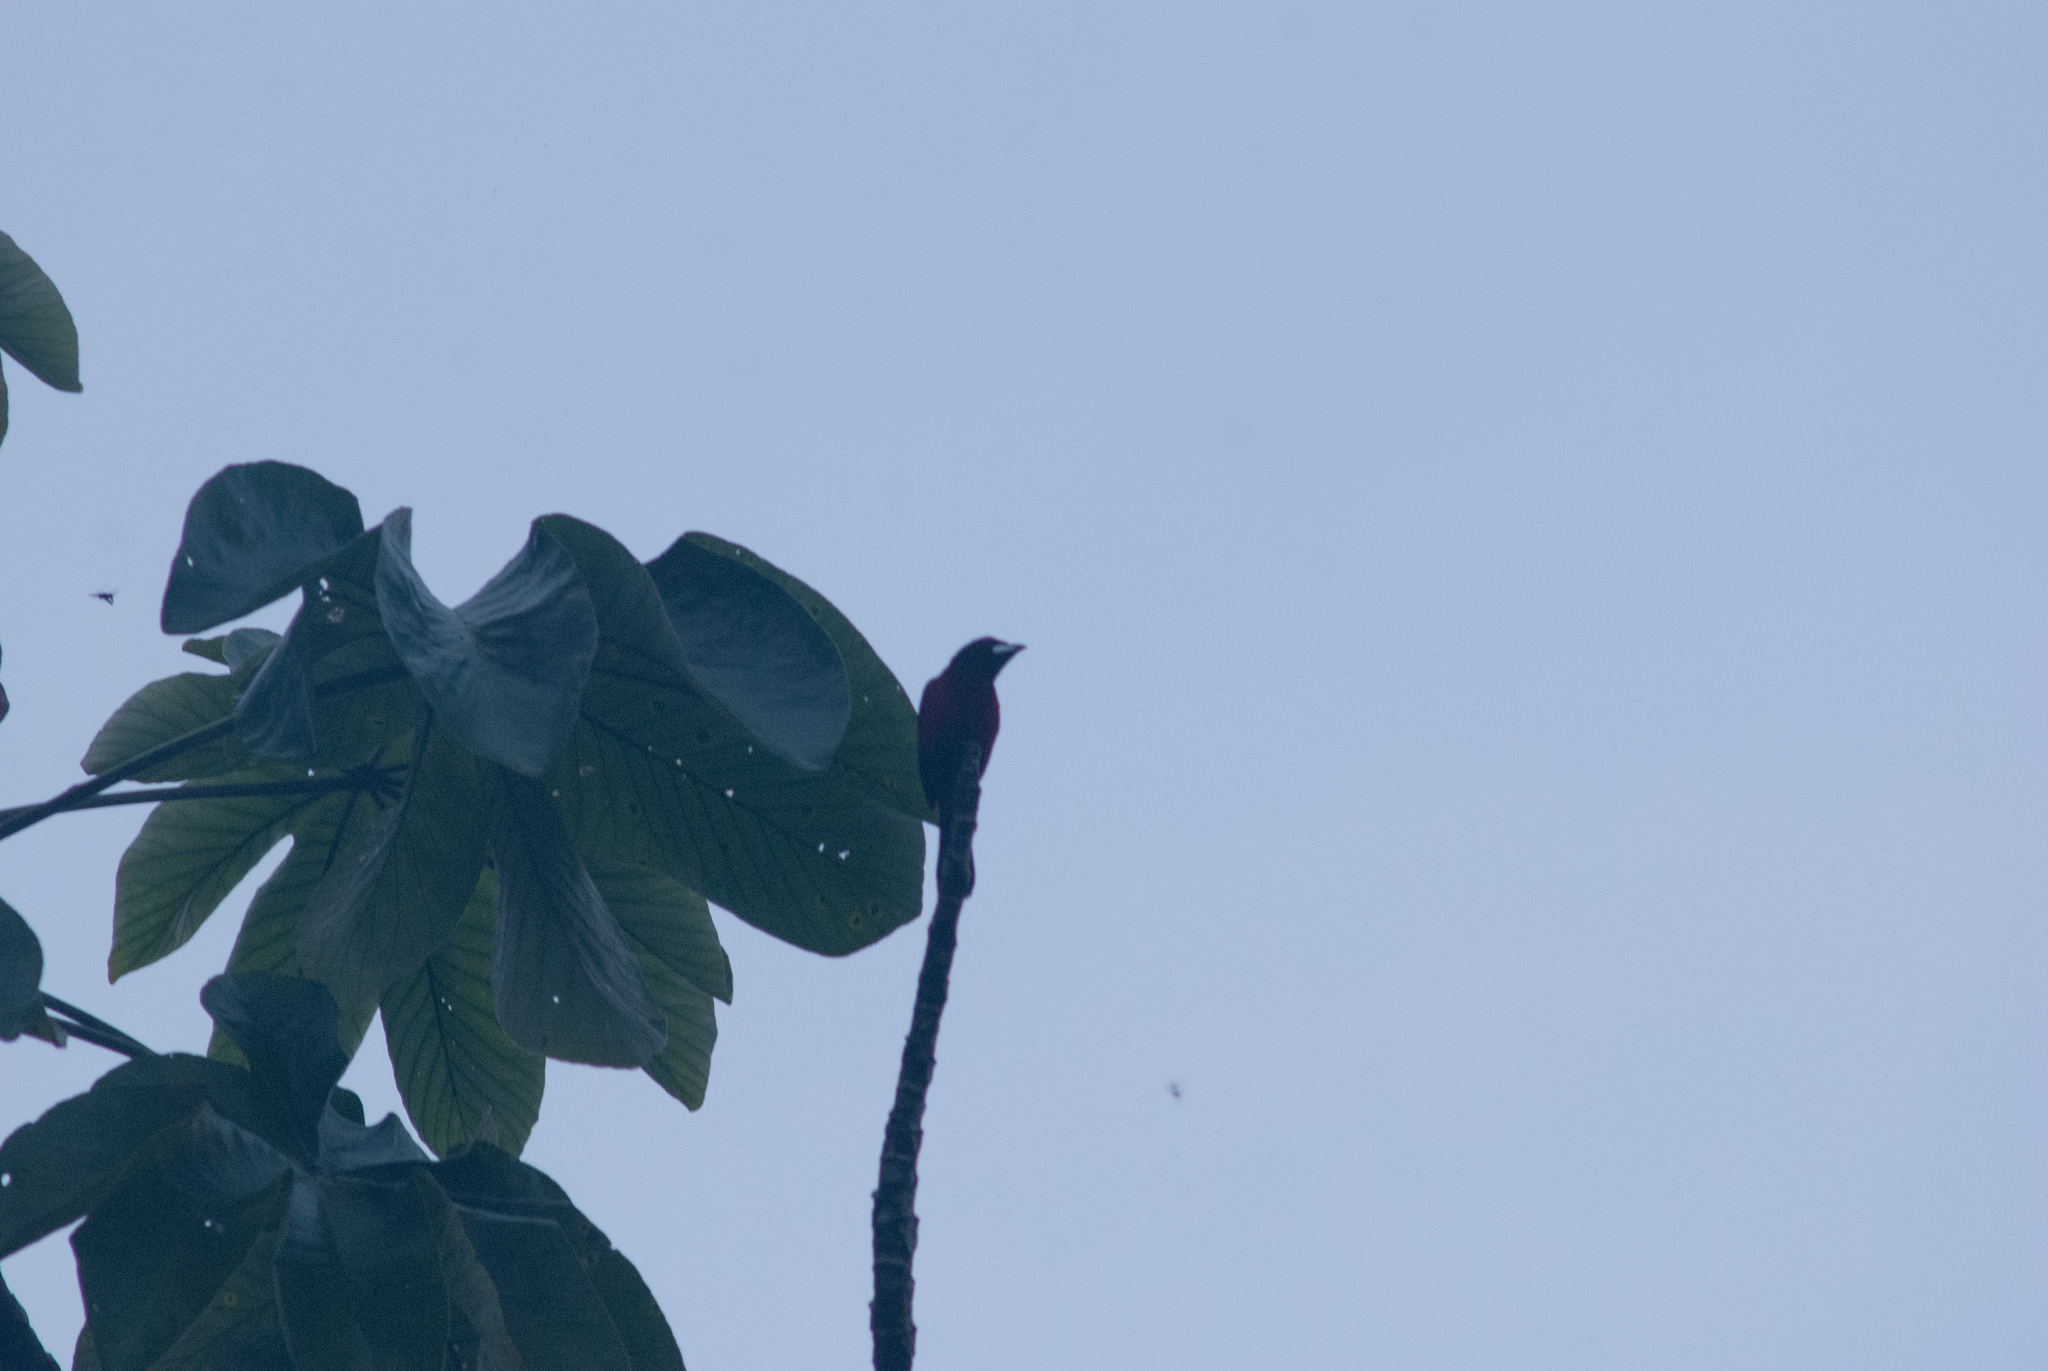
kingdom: Animalia
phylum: Chordata
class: Aves
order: Passeriformes
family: Thraupidae
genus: Ramphocelus
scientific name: Ramphocelus dimidiatus
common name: Crimson-backed tanager
